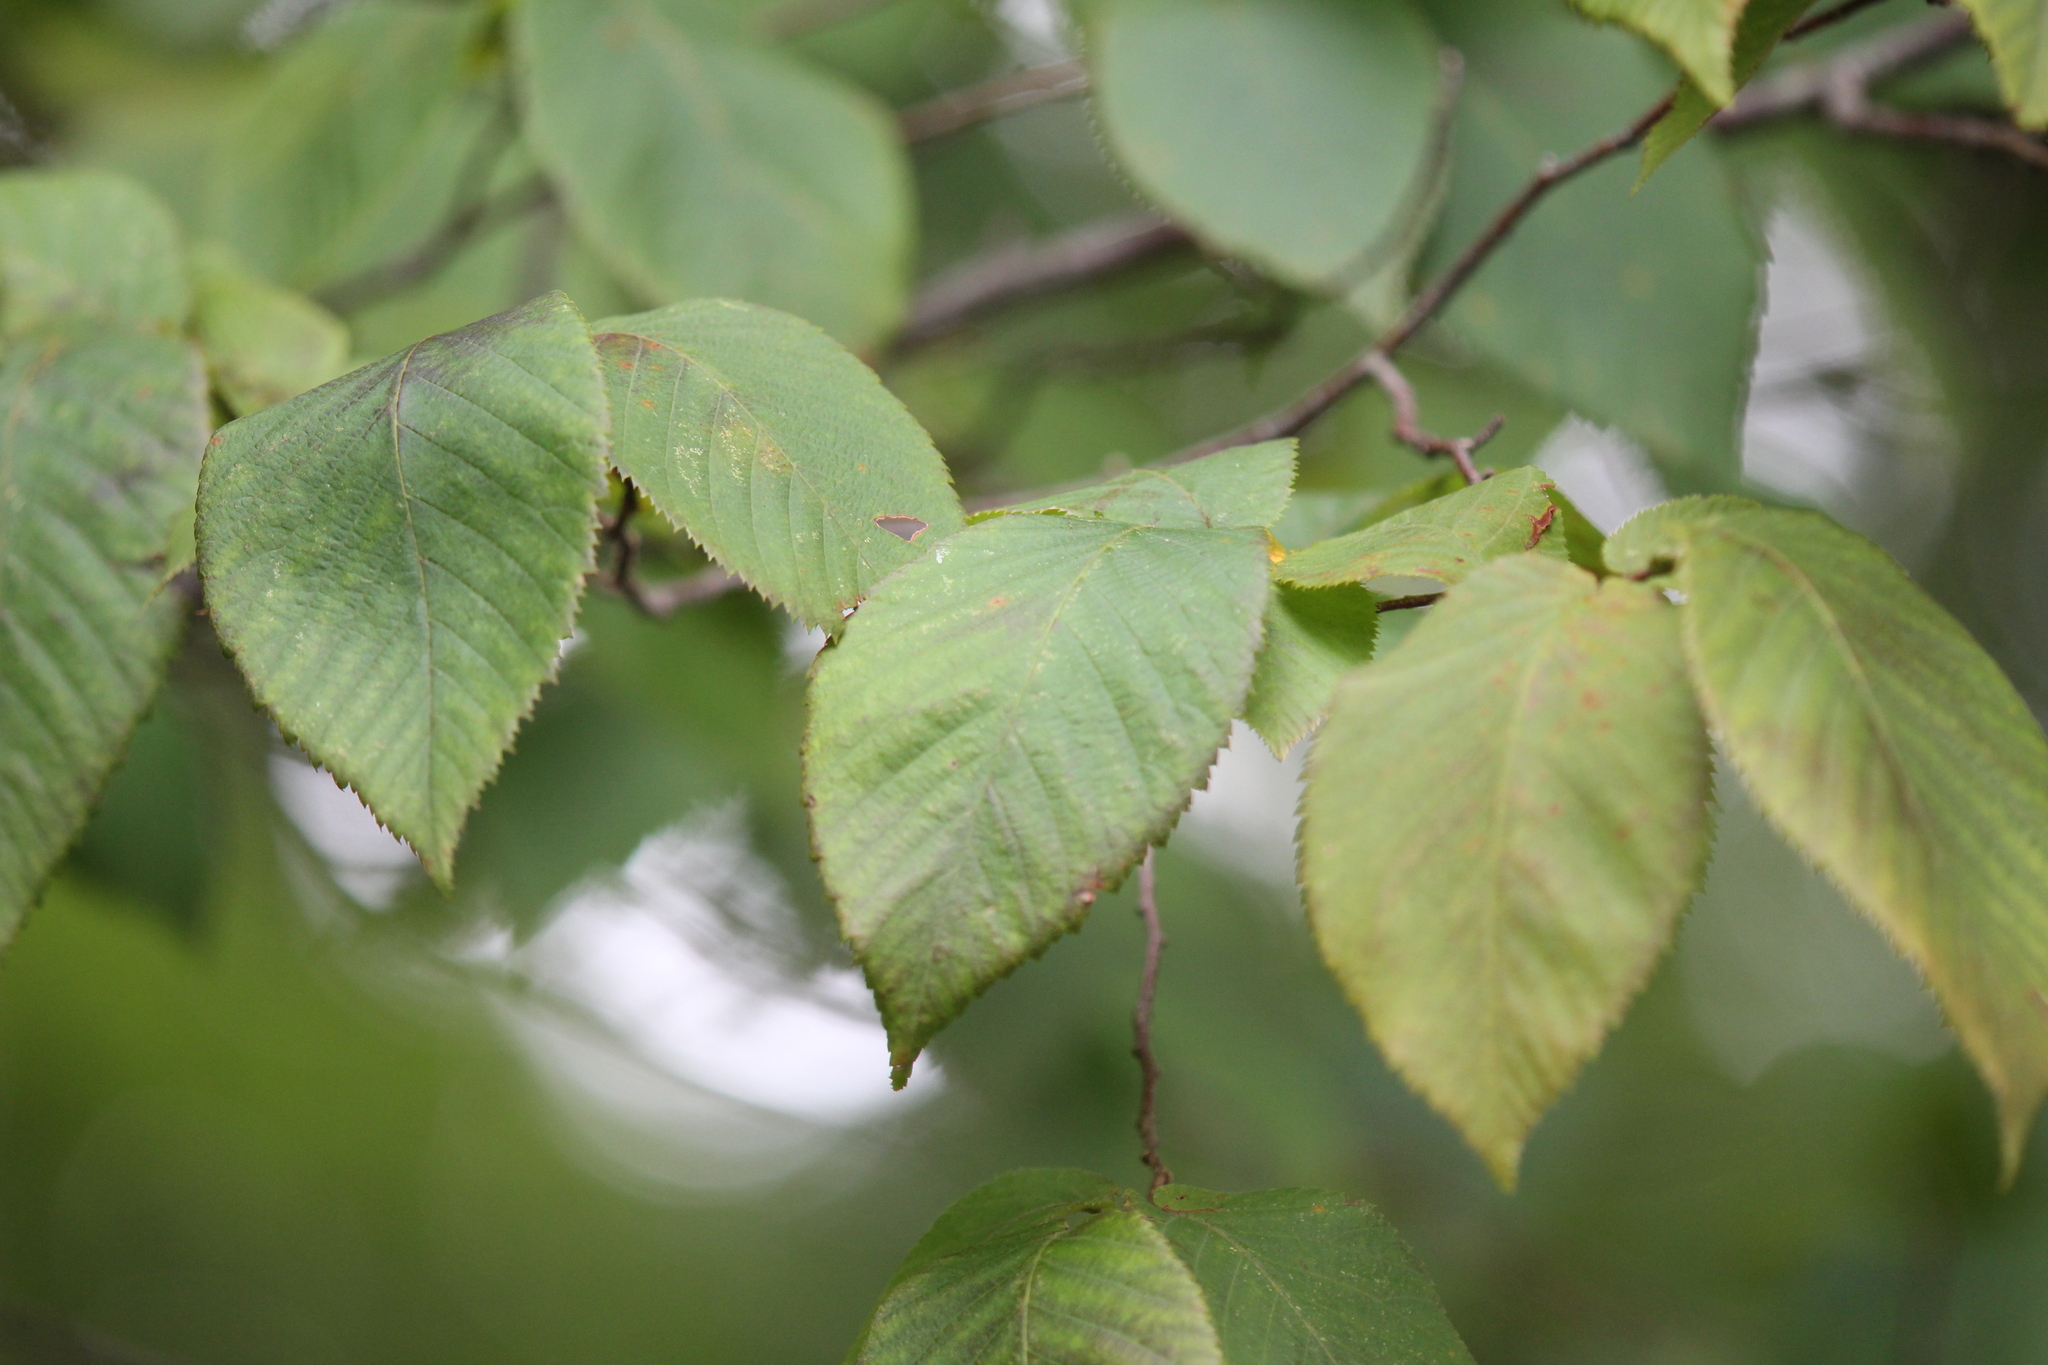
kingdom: Plantae
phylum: Tracheophyta
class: Magnoliopsida
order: Fagales
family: Betulaceae
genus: Ostrya
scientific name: Ostrya virginiana
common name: Ironwood
